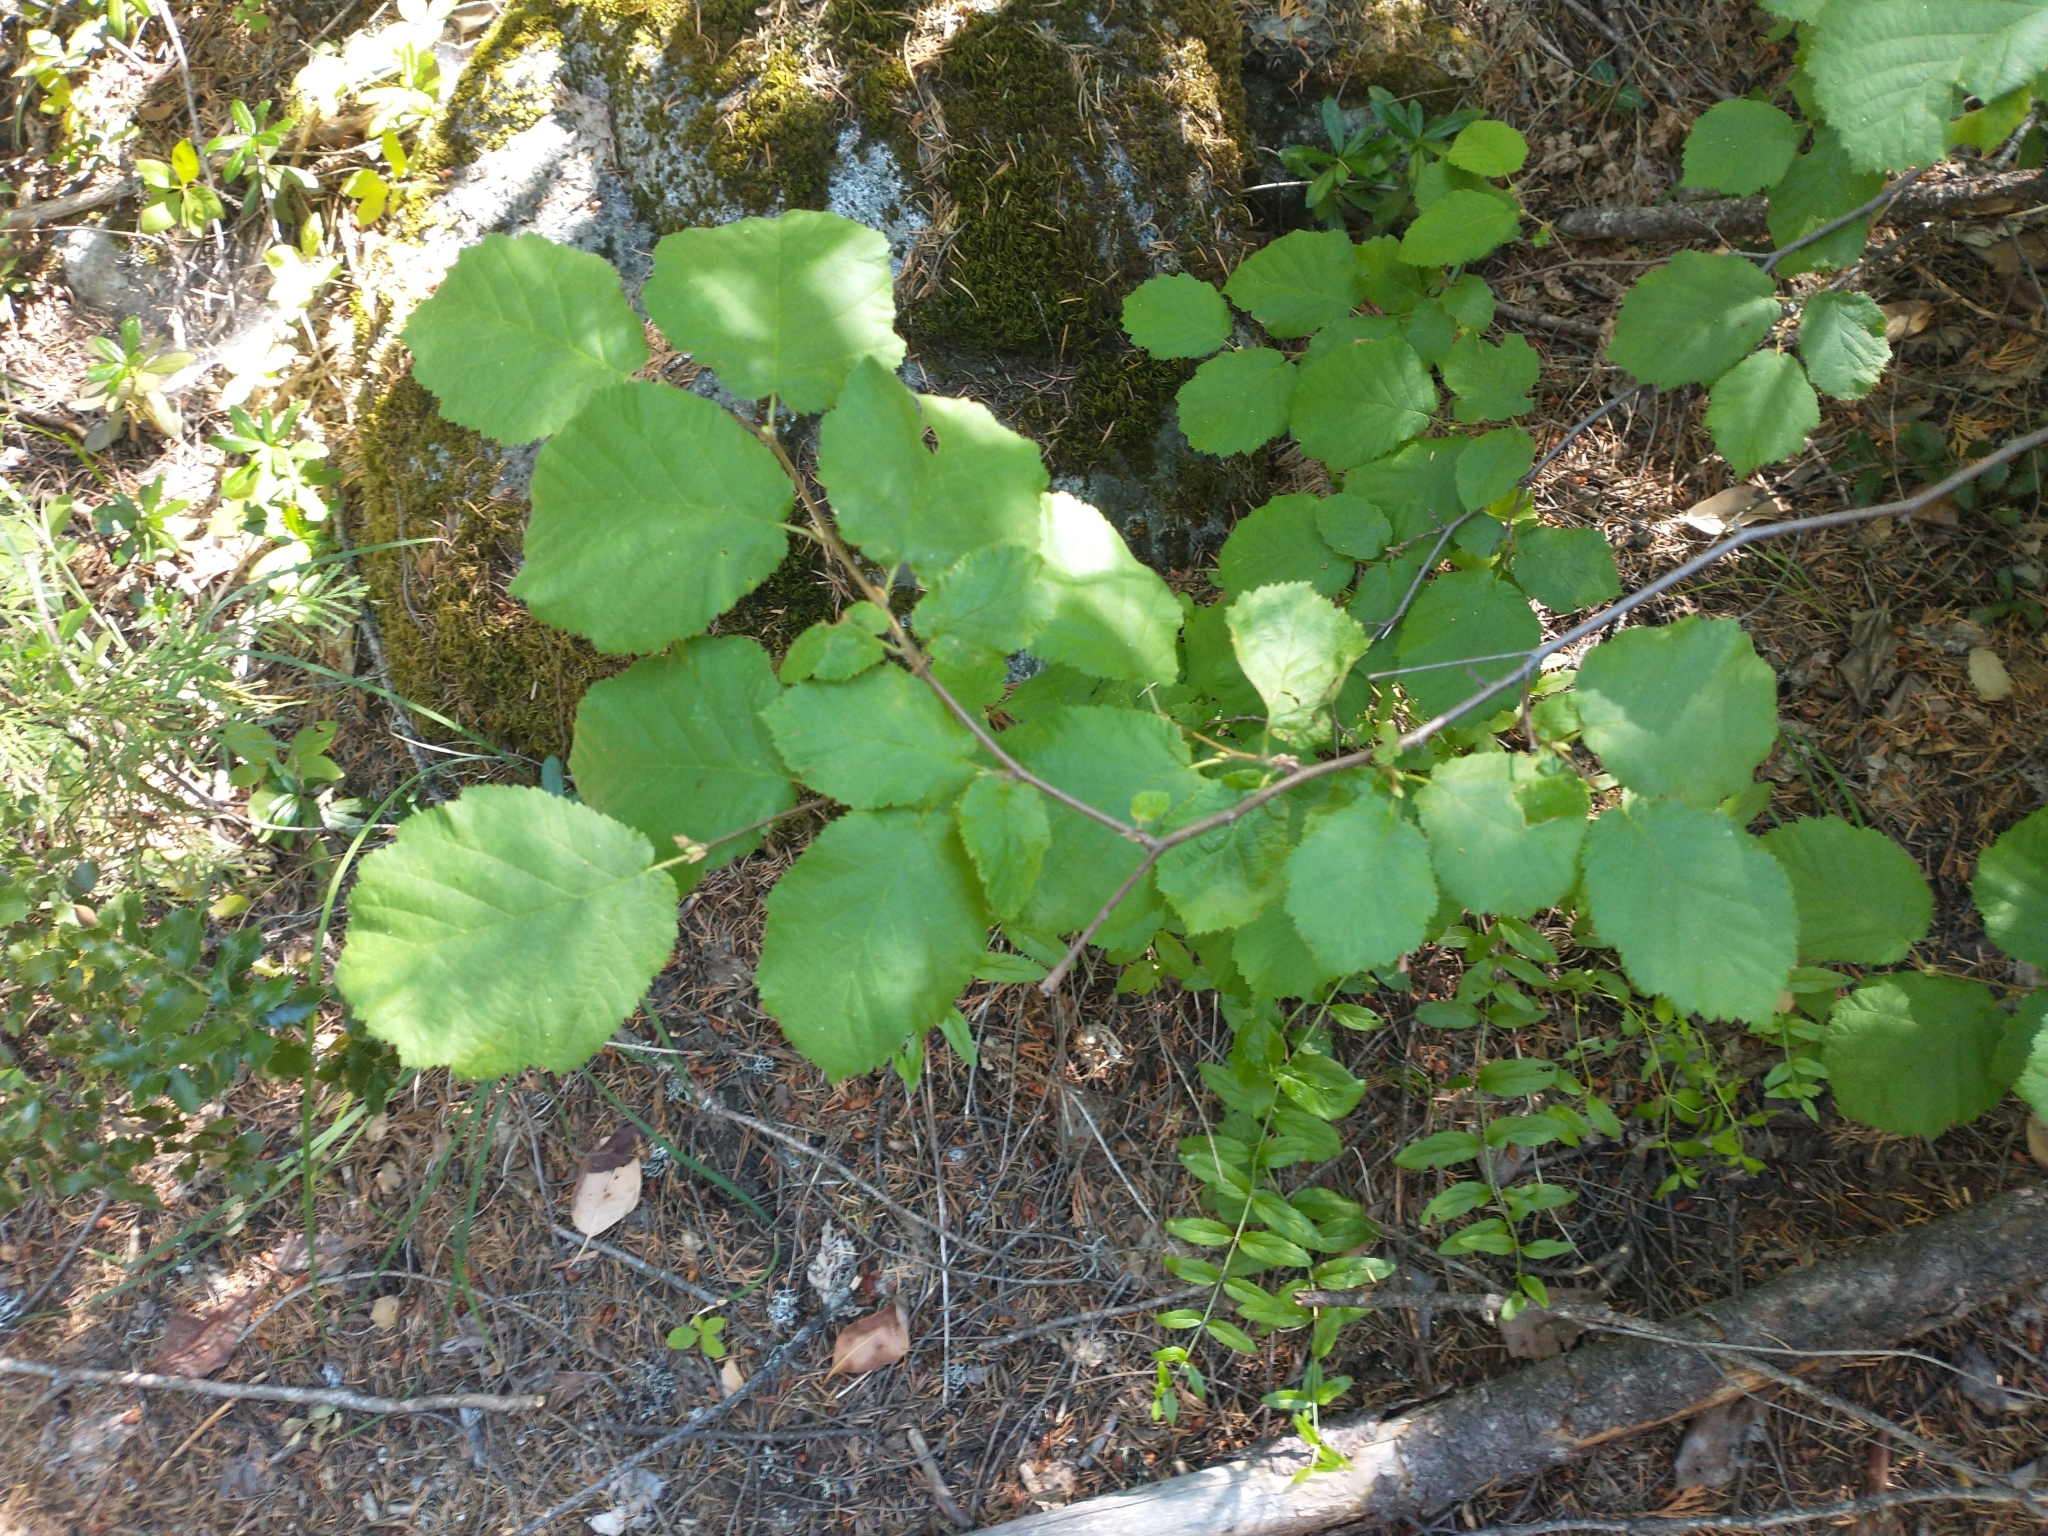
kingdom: Plantae
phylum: Tracheophyta
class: Magnoliopsida
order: Fagales
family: Betulaceae
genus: Corylus
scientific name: Corylus cornuta
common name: Beaked hazel
